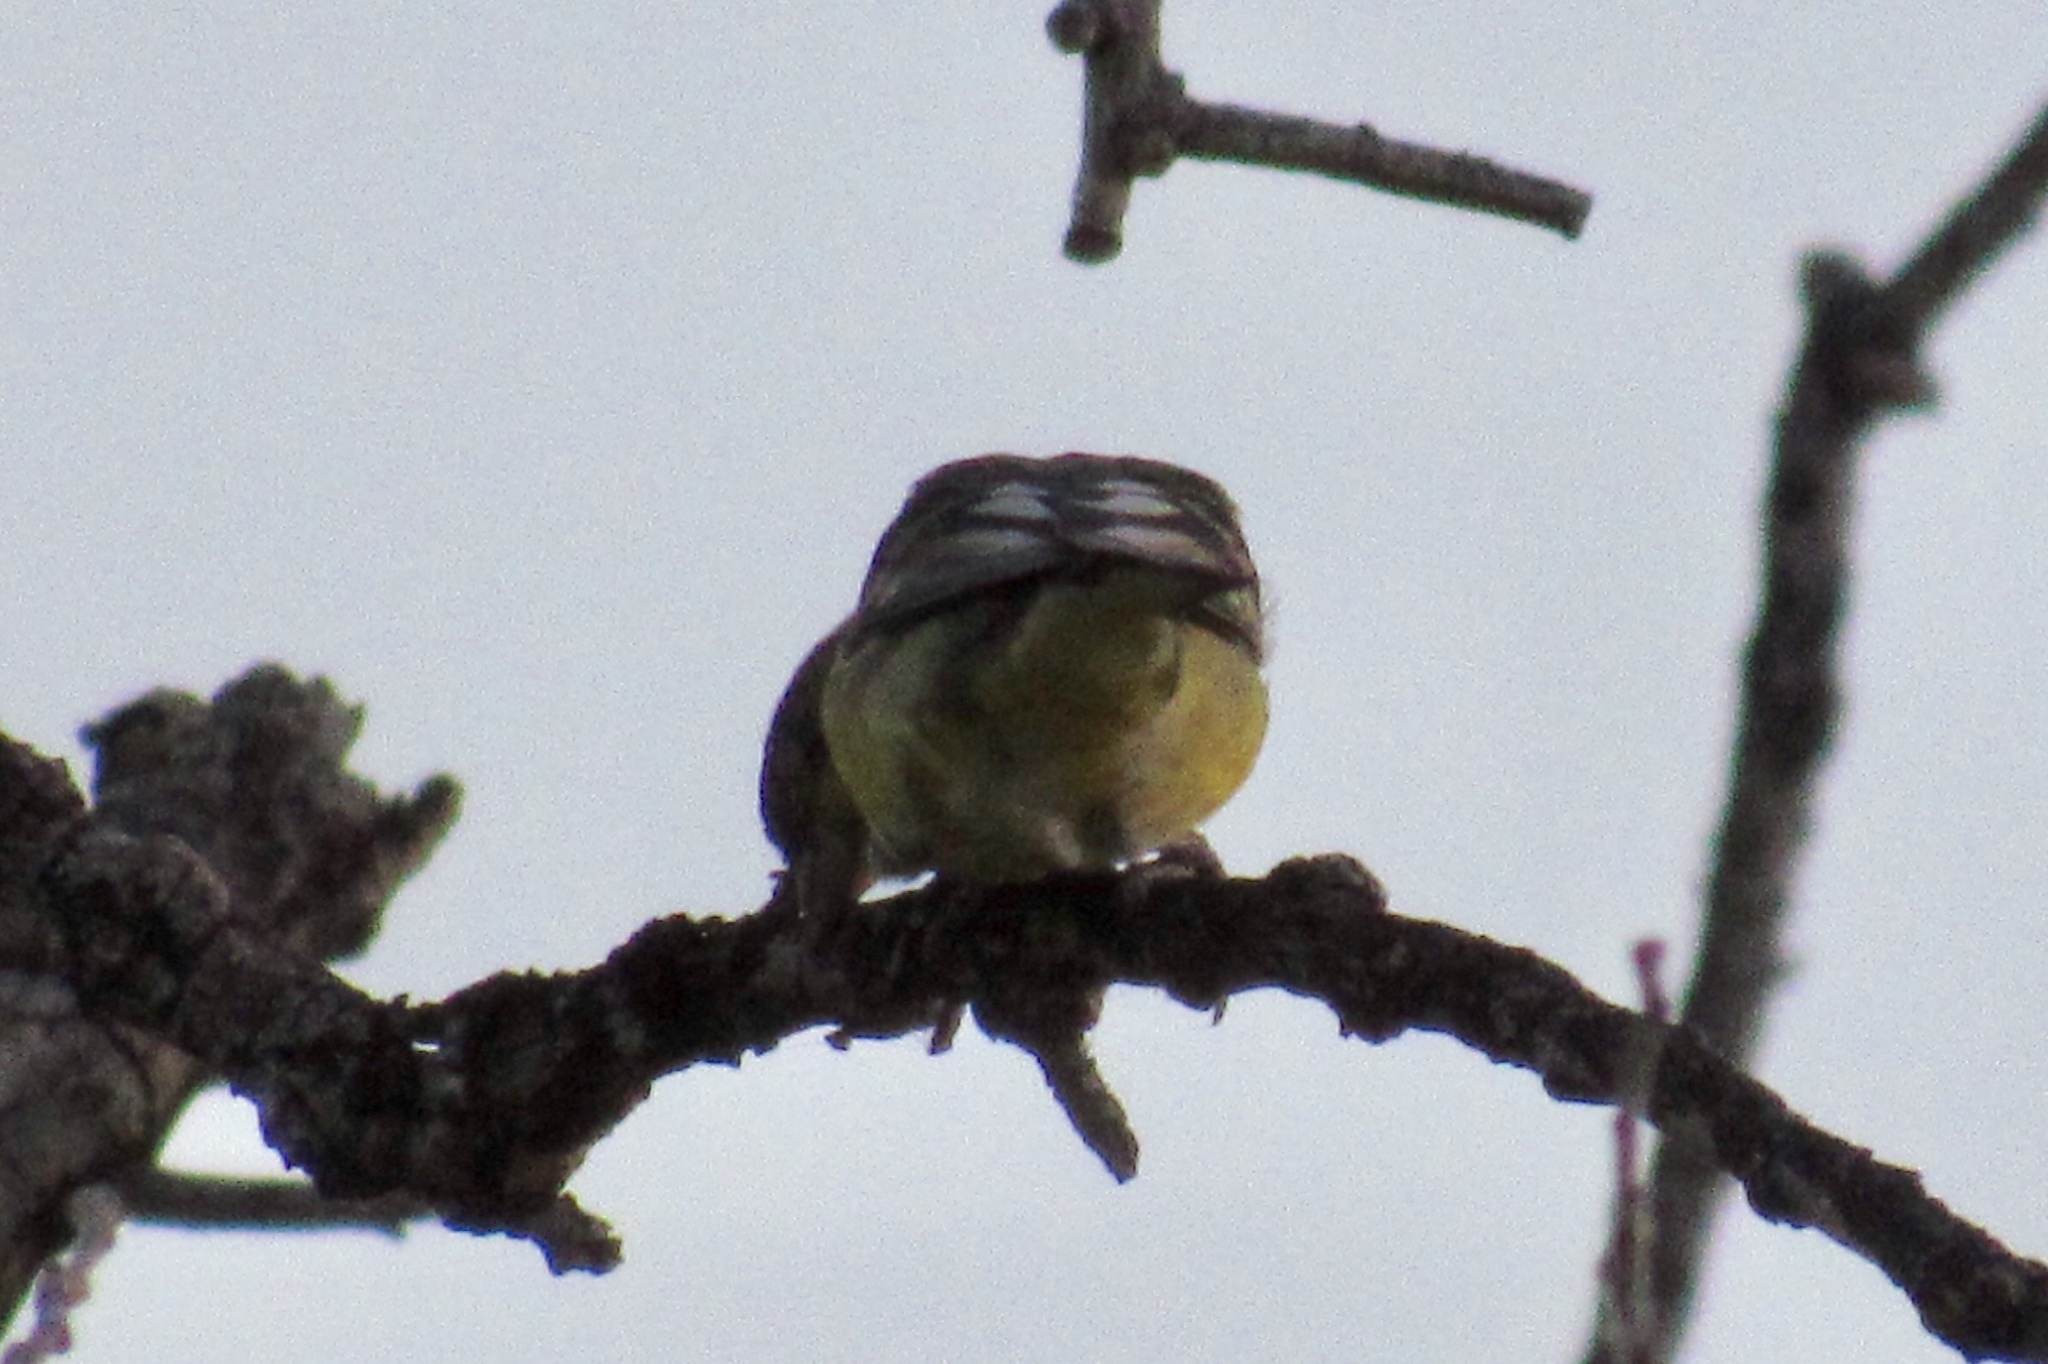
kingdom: Animalia
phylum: Chordata
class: Aves
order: Passeriformes
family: Fringillidae
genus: Spinus
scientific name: Spinus psaltria
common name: Lesser goldfinch
